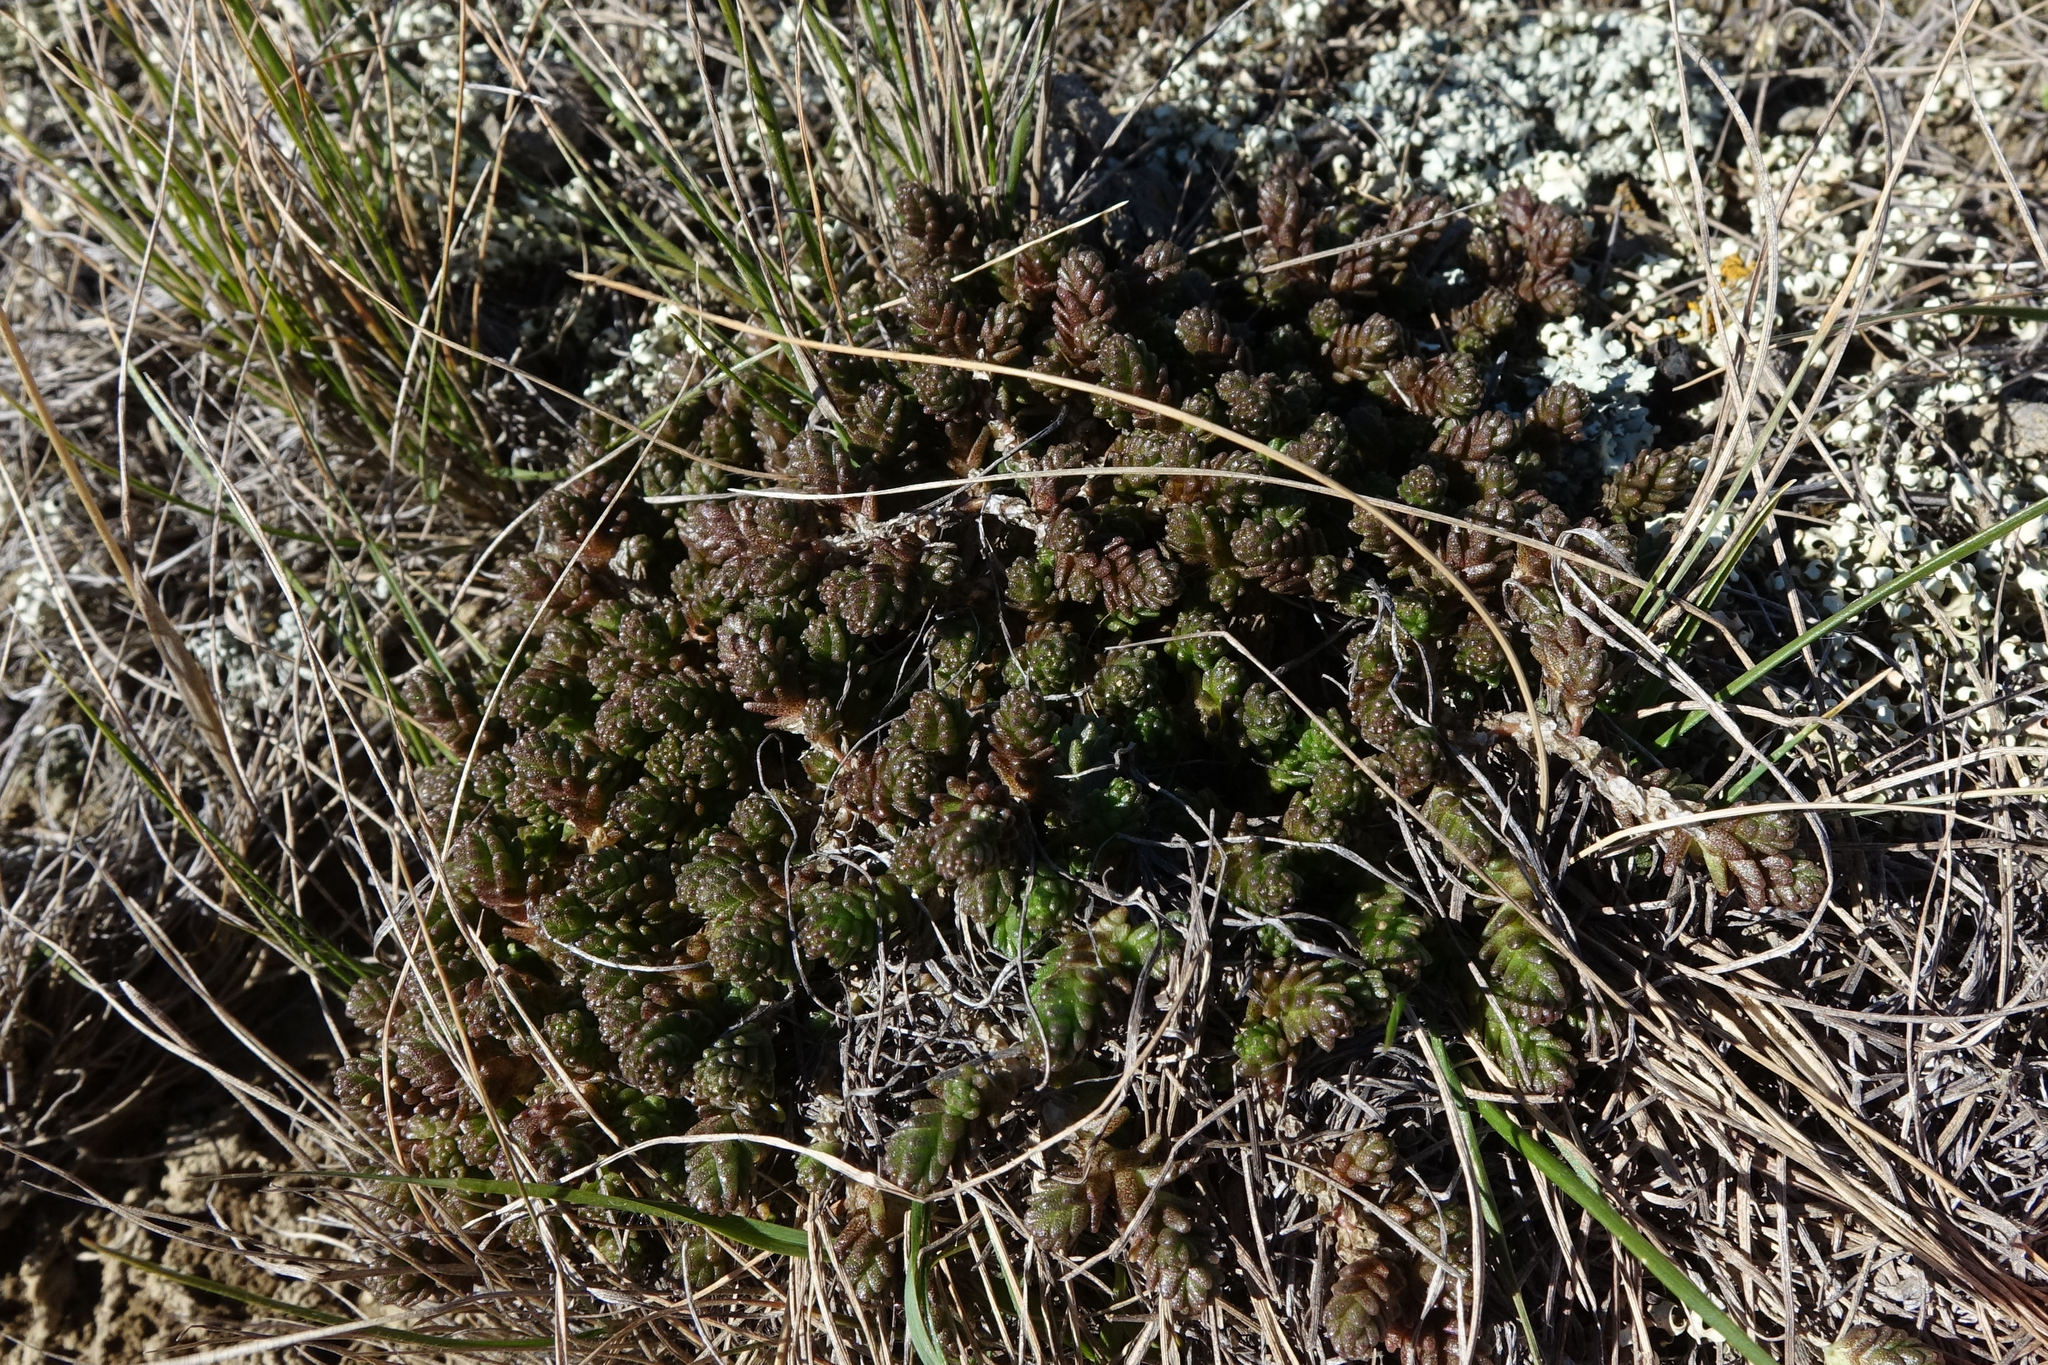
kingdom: Plantae
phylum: Tracheophyta
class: Magnoliopsida
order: Saxifragales
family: Crassulaceae
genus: Sedum
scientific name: Sedum acre
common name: Biting stonecrop
